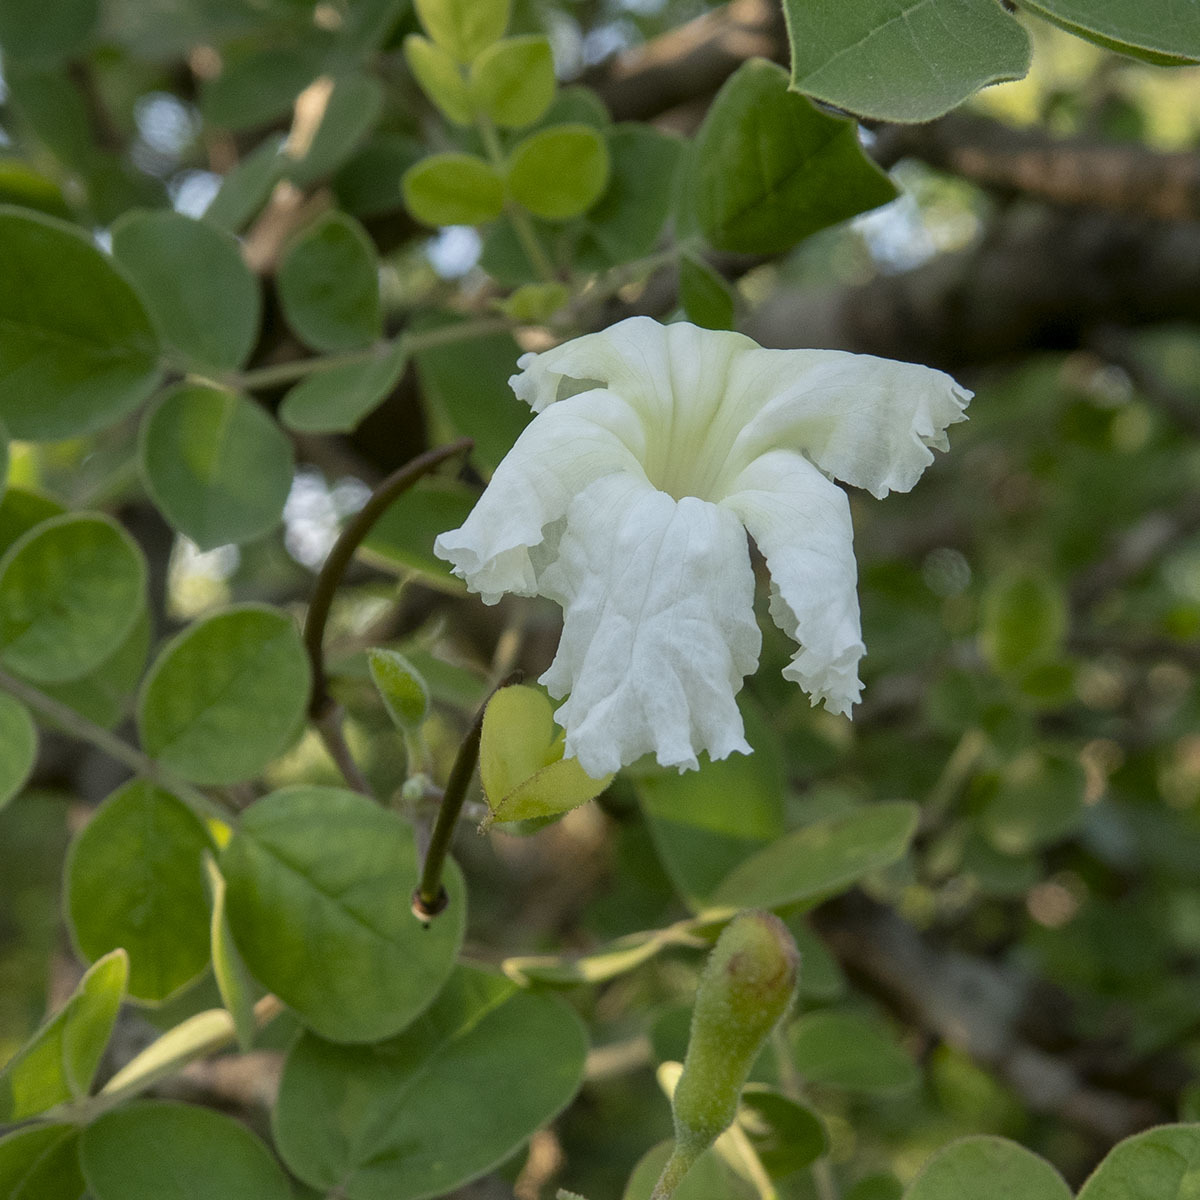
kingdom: Plantae
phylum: Tracheophyta
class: Magnoliopsida
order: Lamiales
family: Bignoniaceae
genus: Dolichandrone
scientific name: Dolichandrone falcata
